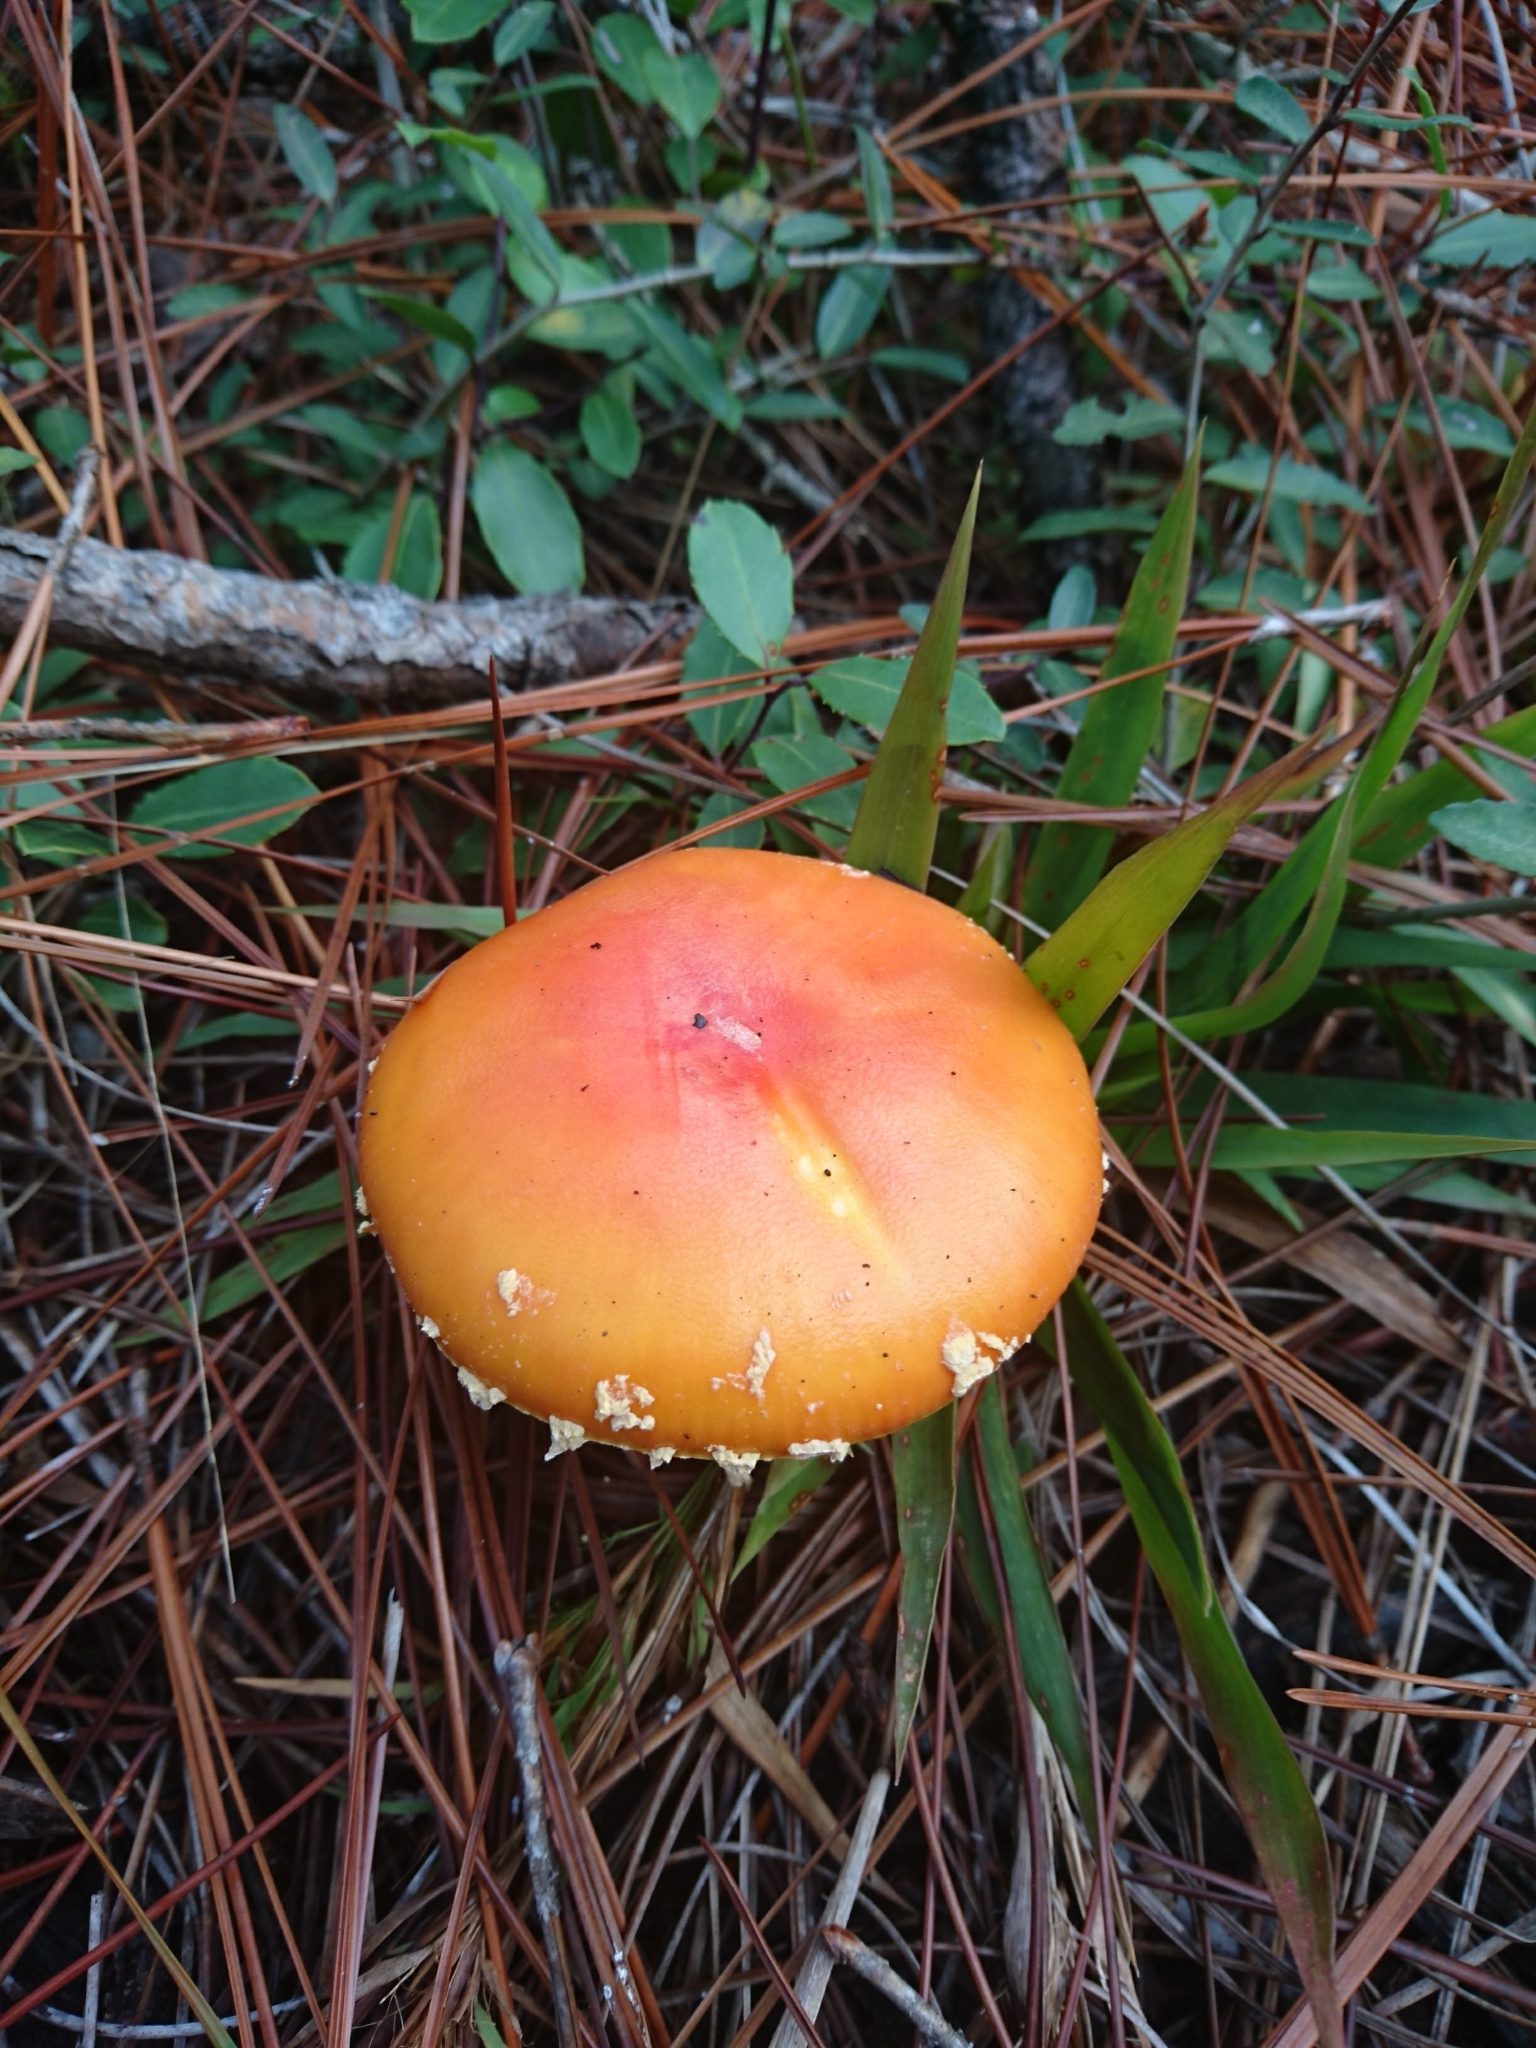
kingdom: Fungi
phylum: Basidiomycota
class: Agaricomycetes
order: Agaricales
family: Amanitaceae
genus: Amanita
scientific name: Amanita persicina
